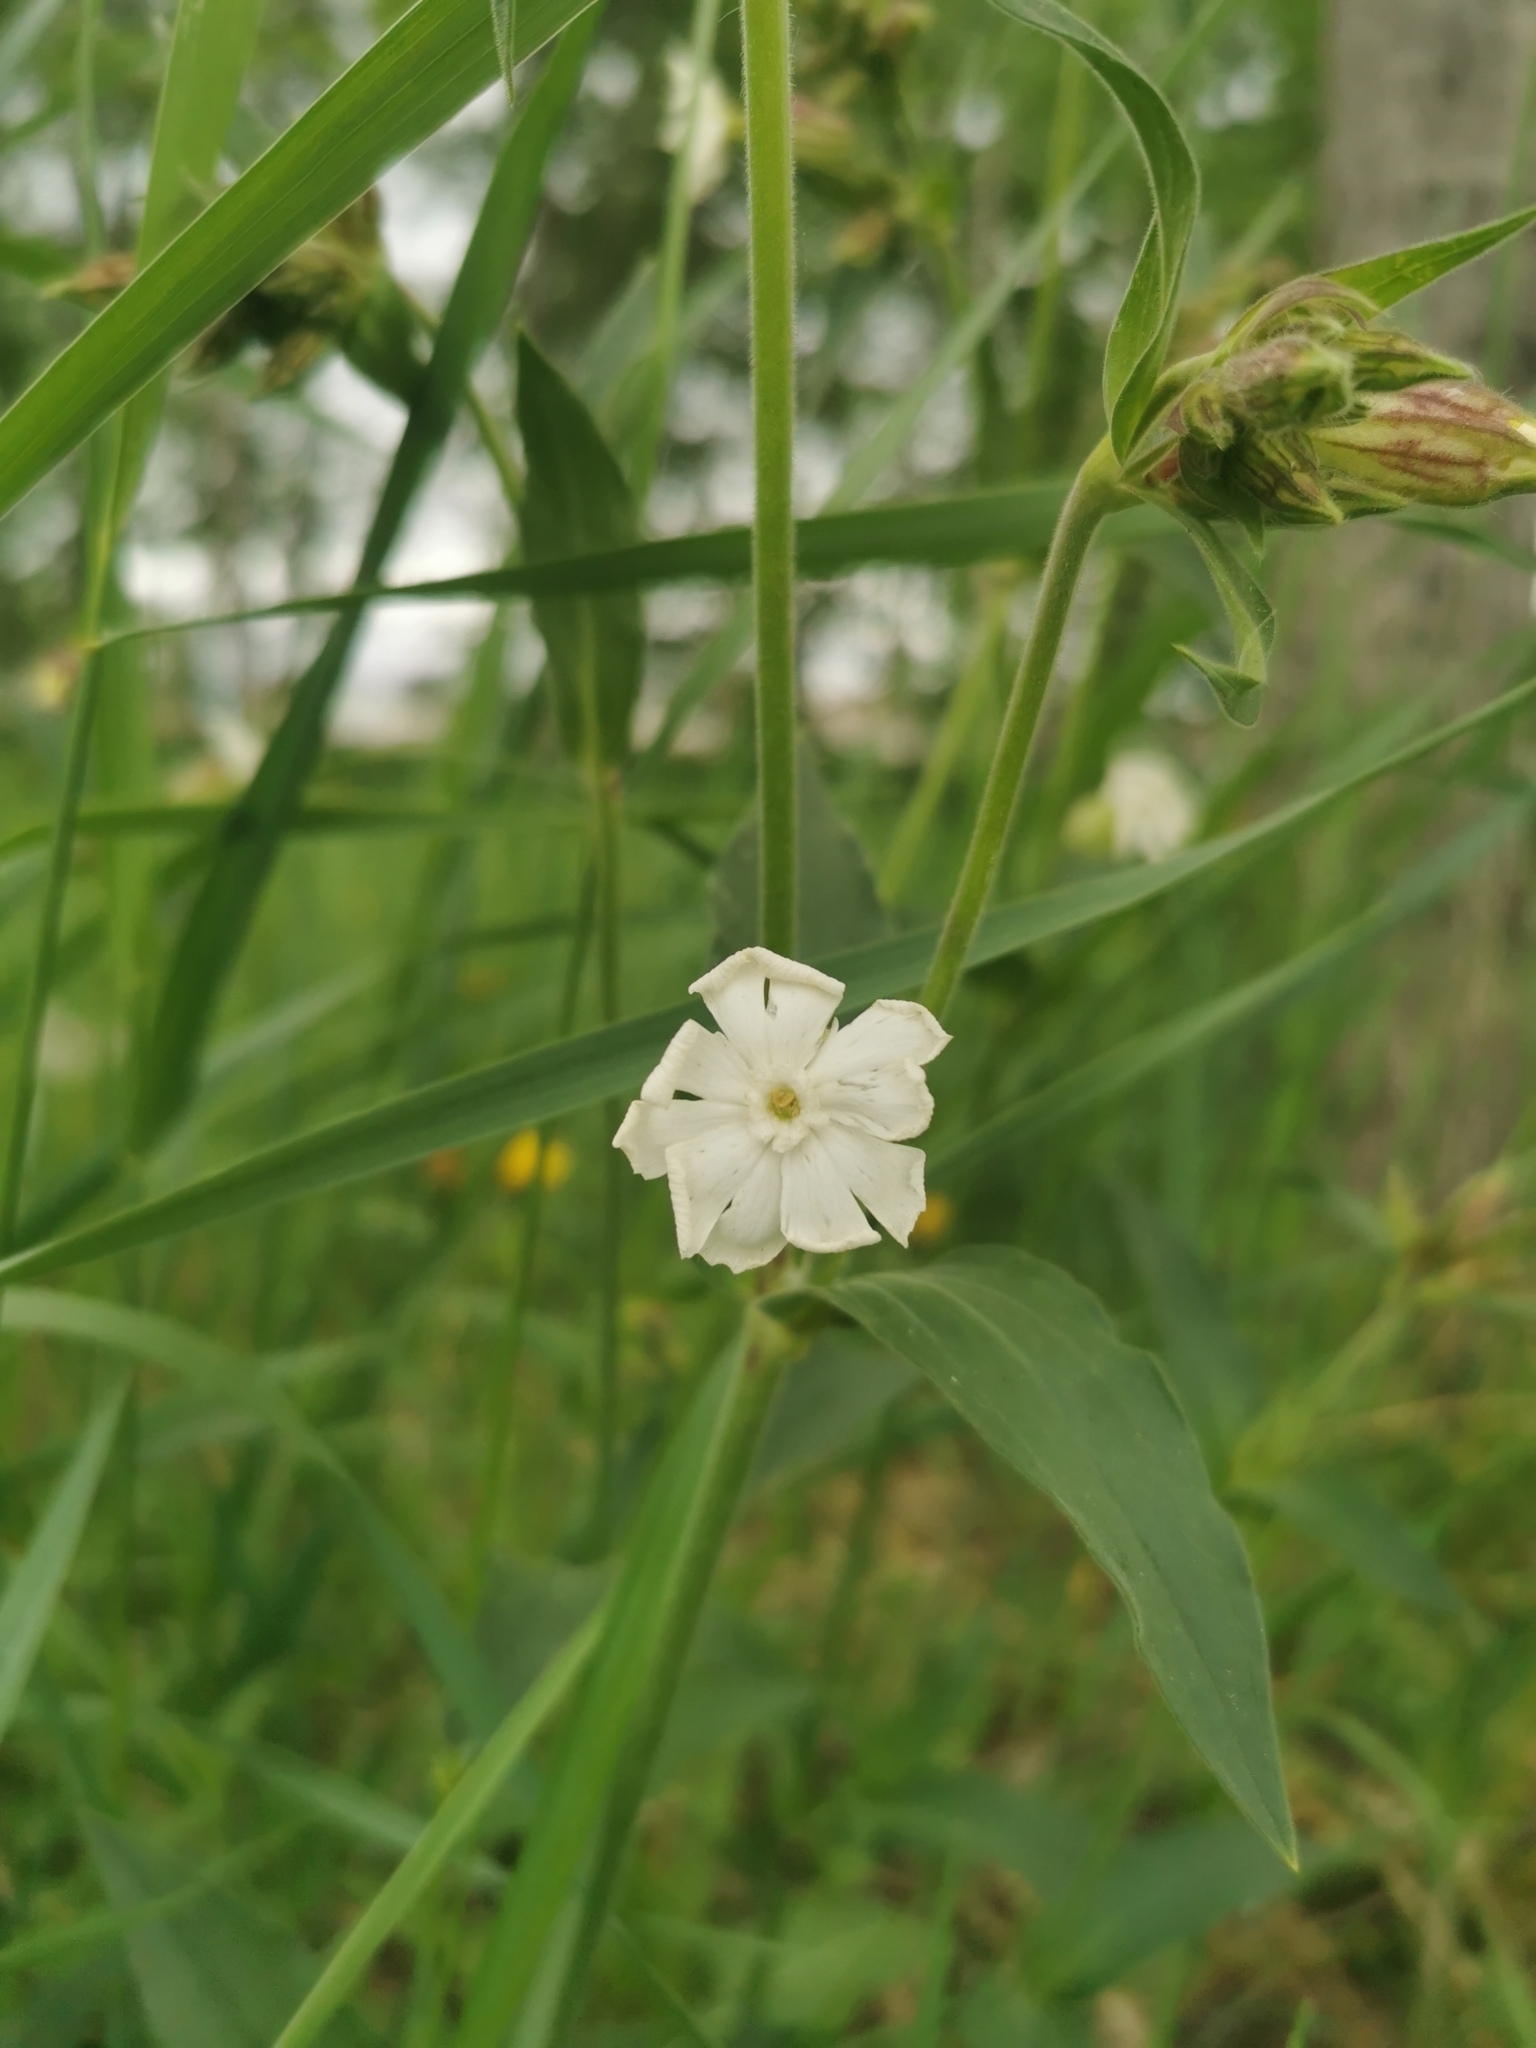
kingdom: Plantae
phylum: Tracheophyta
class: Magnoliopsida
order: Caryophyllales
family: Caryophyllaceae
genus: Silene
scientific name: Silene latifolia
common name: White campion
